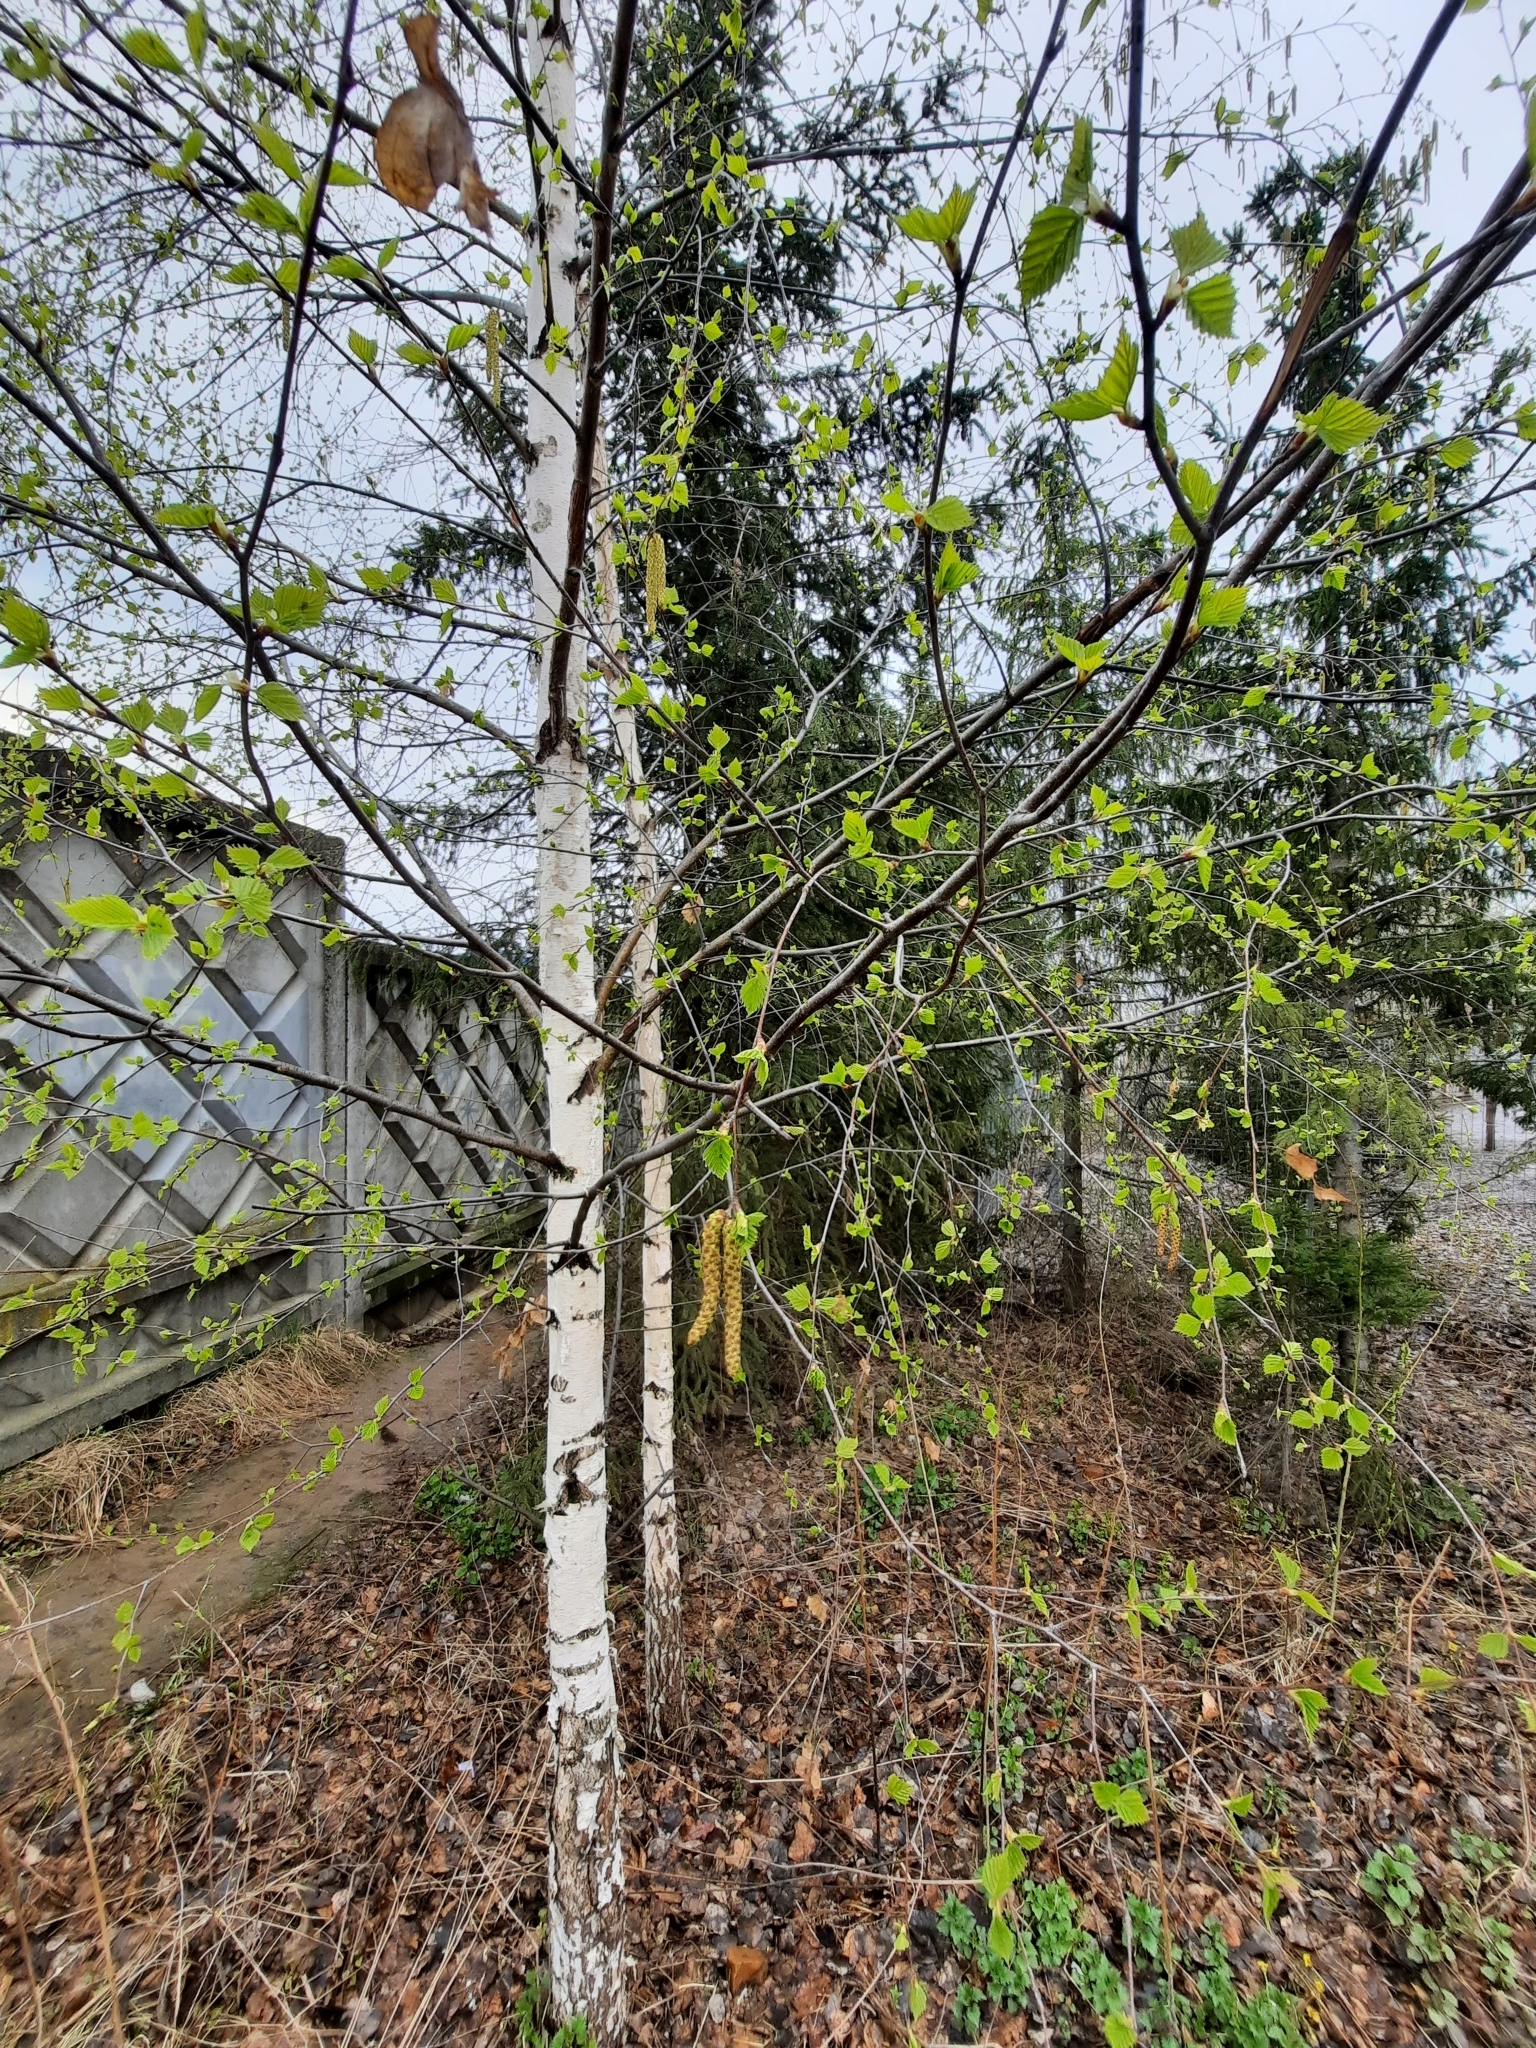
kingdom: Plantae
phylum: Tracheophyta
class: Magnoliopsida
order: Fagales
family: Betulaceae
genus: Betula
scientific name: Betula pendula
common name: Silver birch
